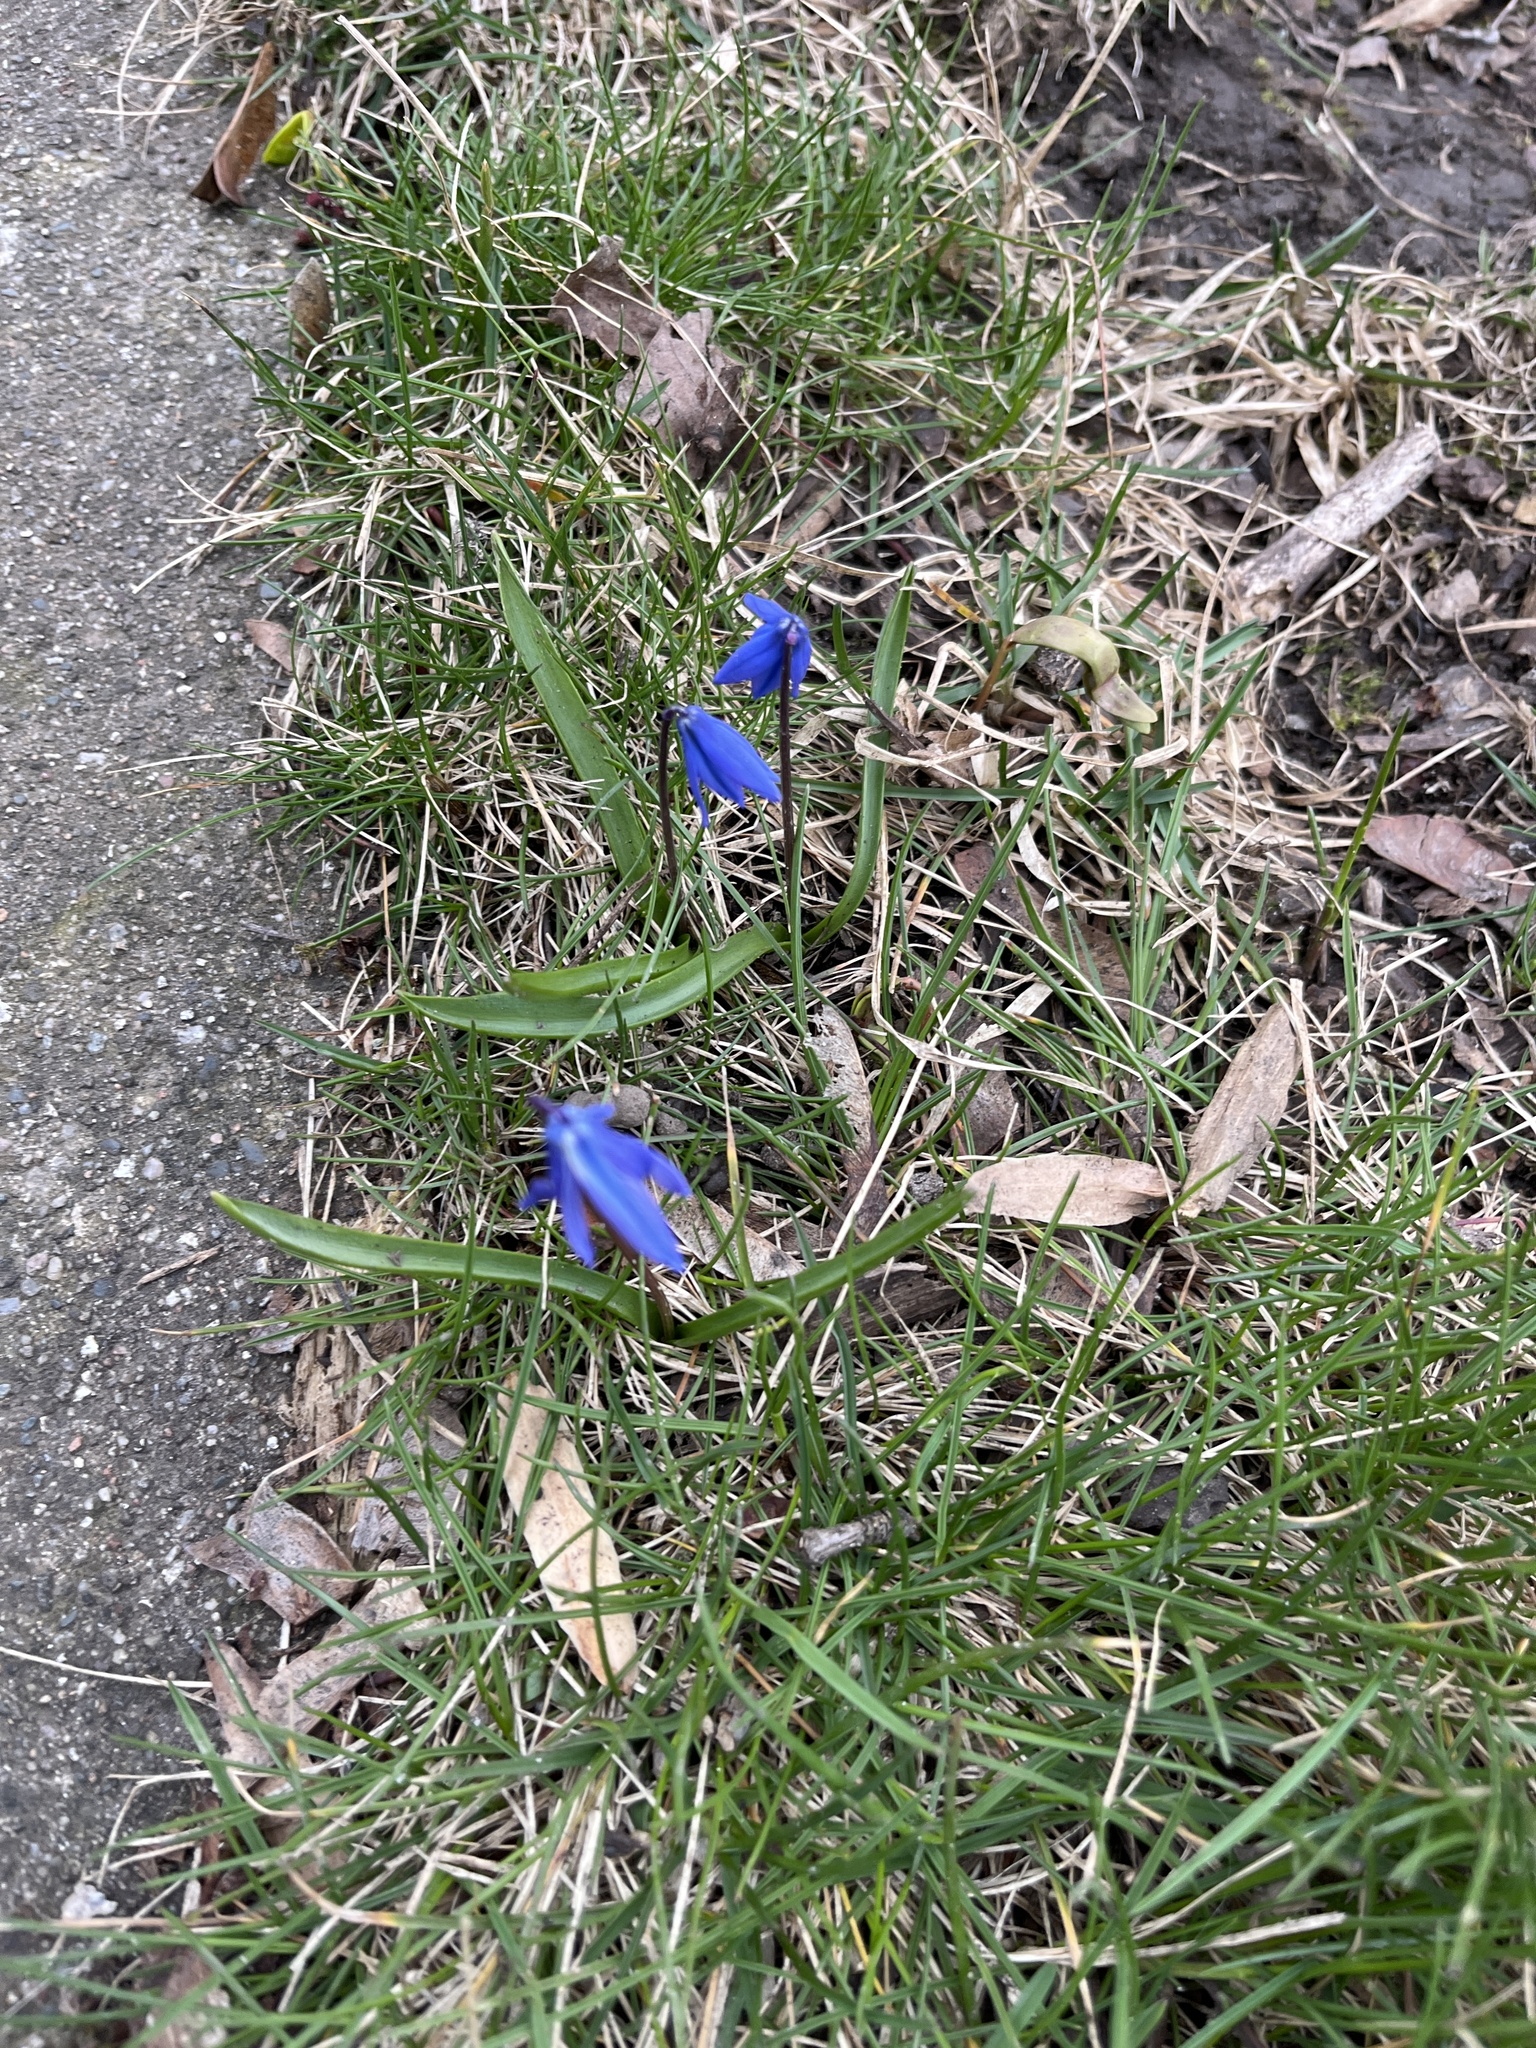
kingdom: Plantae
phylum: Tracheophyta
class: Liliopsida
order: Asparagales
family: Asparagaceae
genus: Scilla
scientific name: Scilla siberica
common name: Siberian squill
